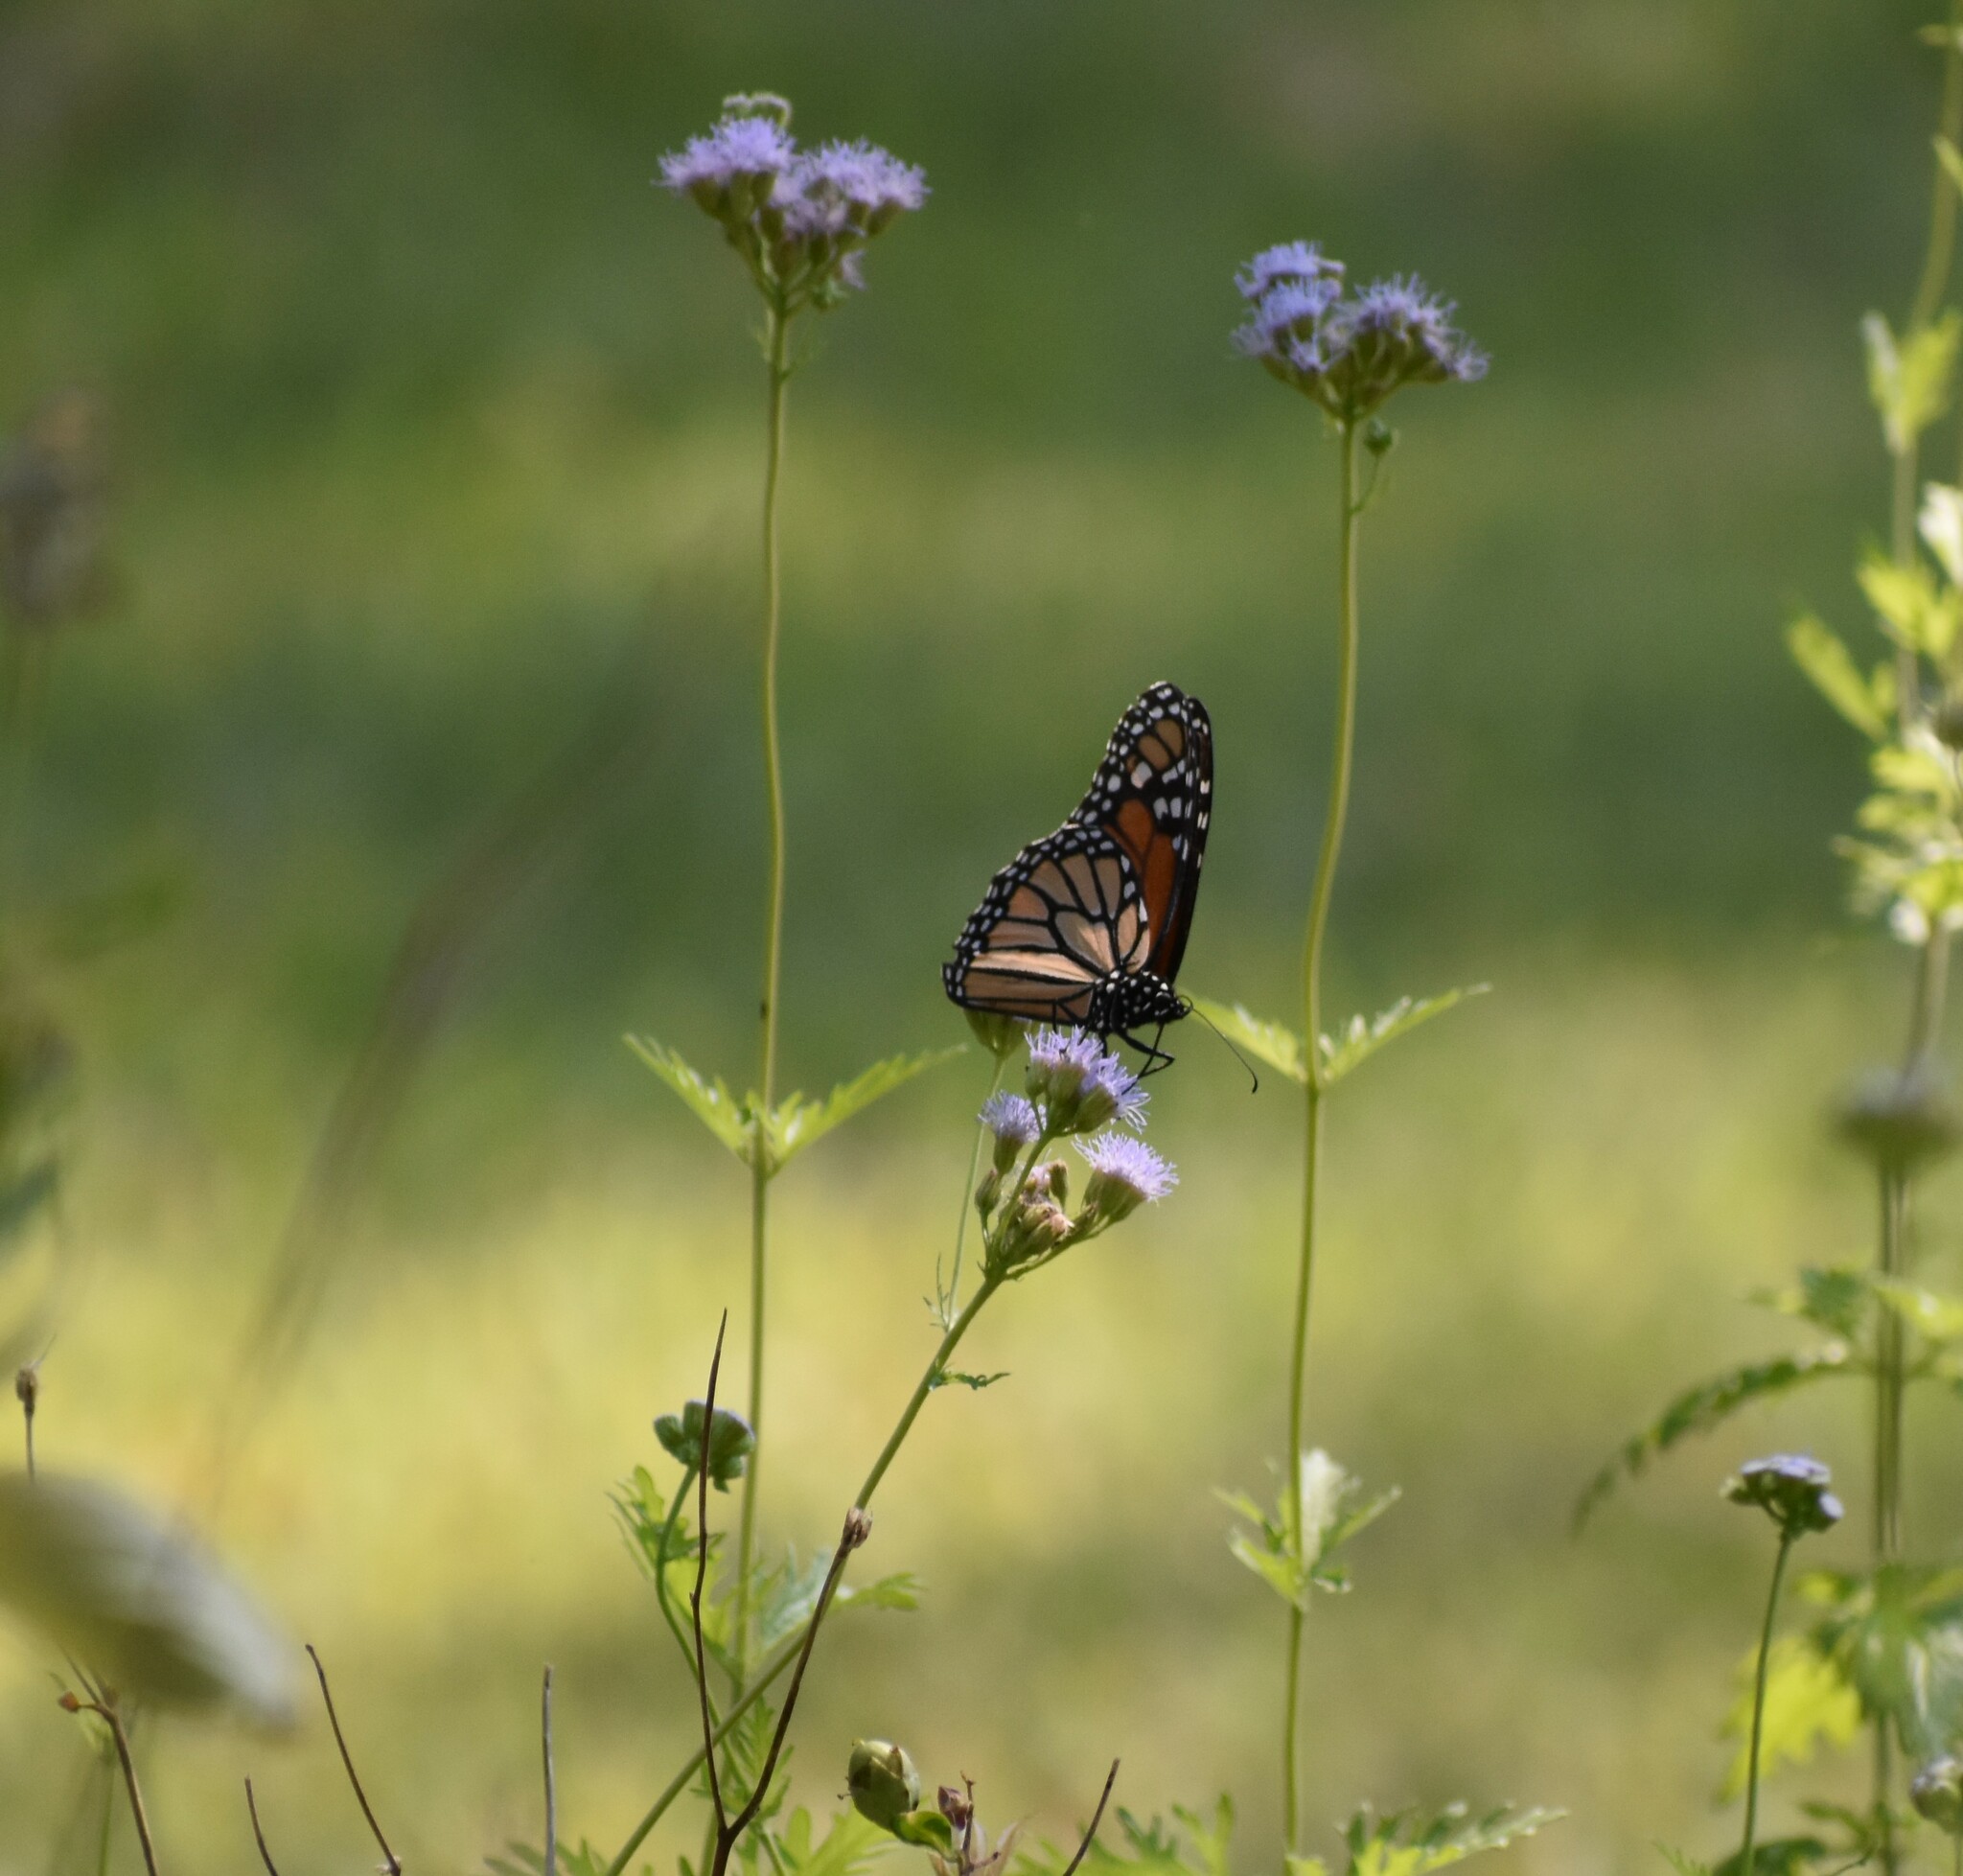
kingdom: Animalia
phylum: Arthropoda
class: Insecta
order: Lepidoptera
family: Nymphalidae
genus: Danaus
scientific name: Danaus plexippus
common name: Monarch
